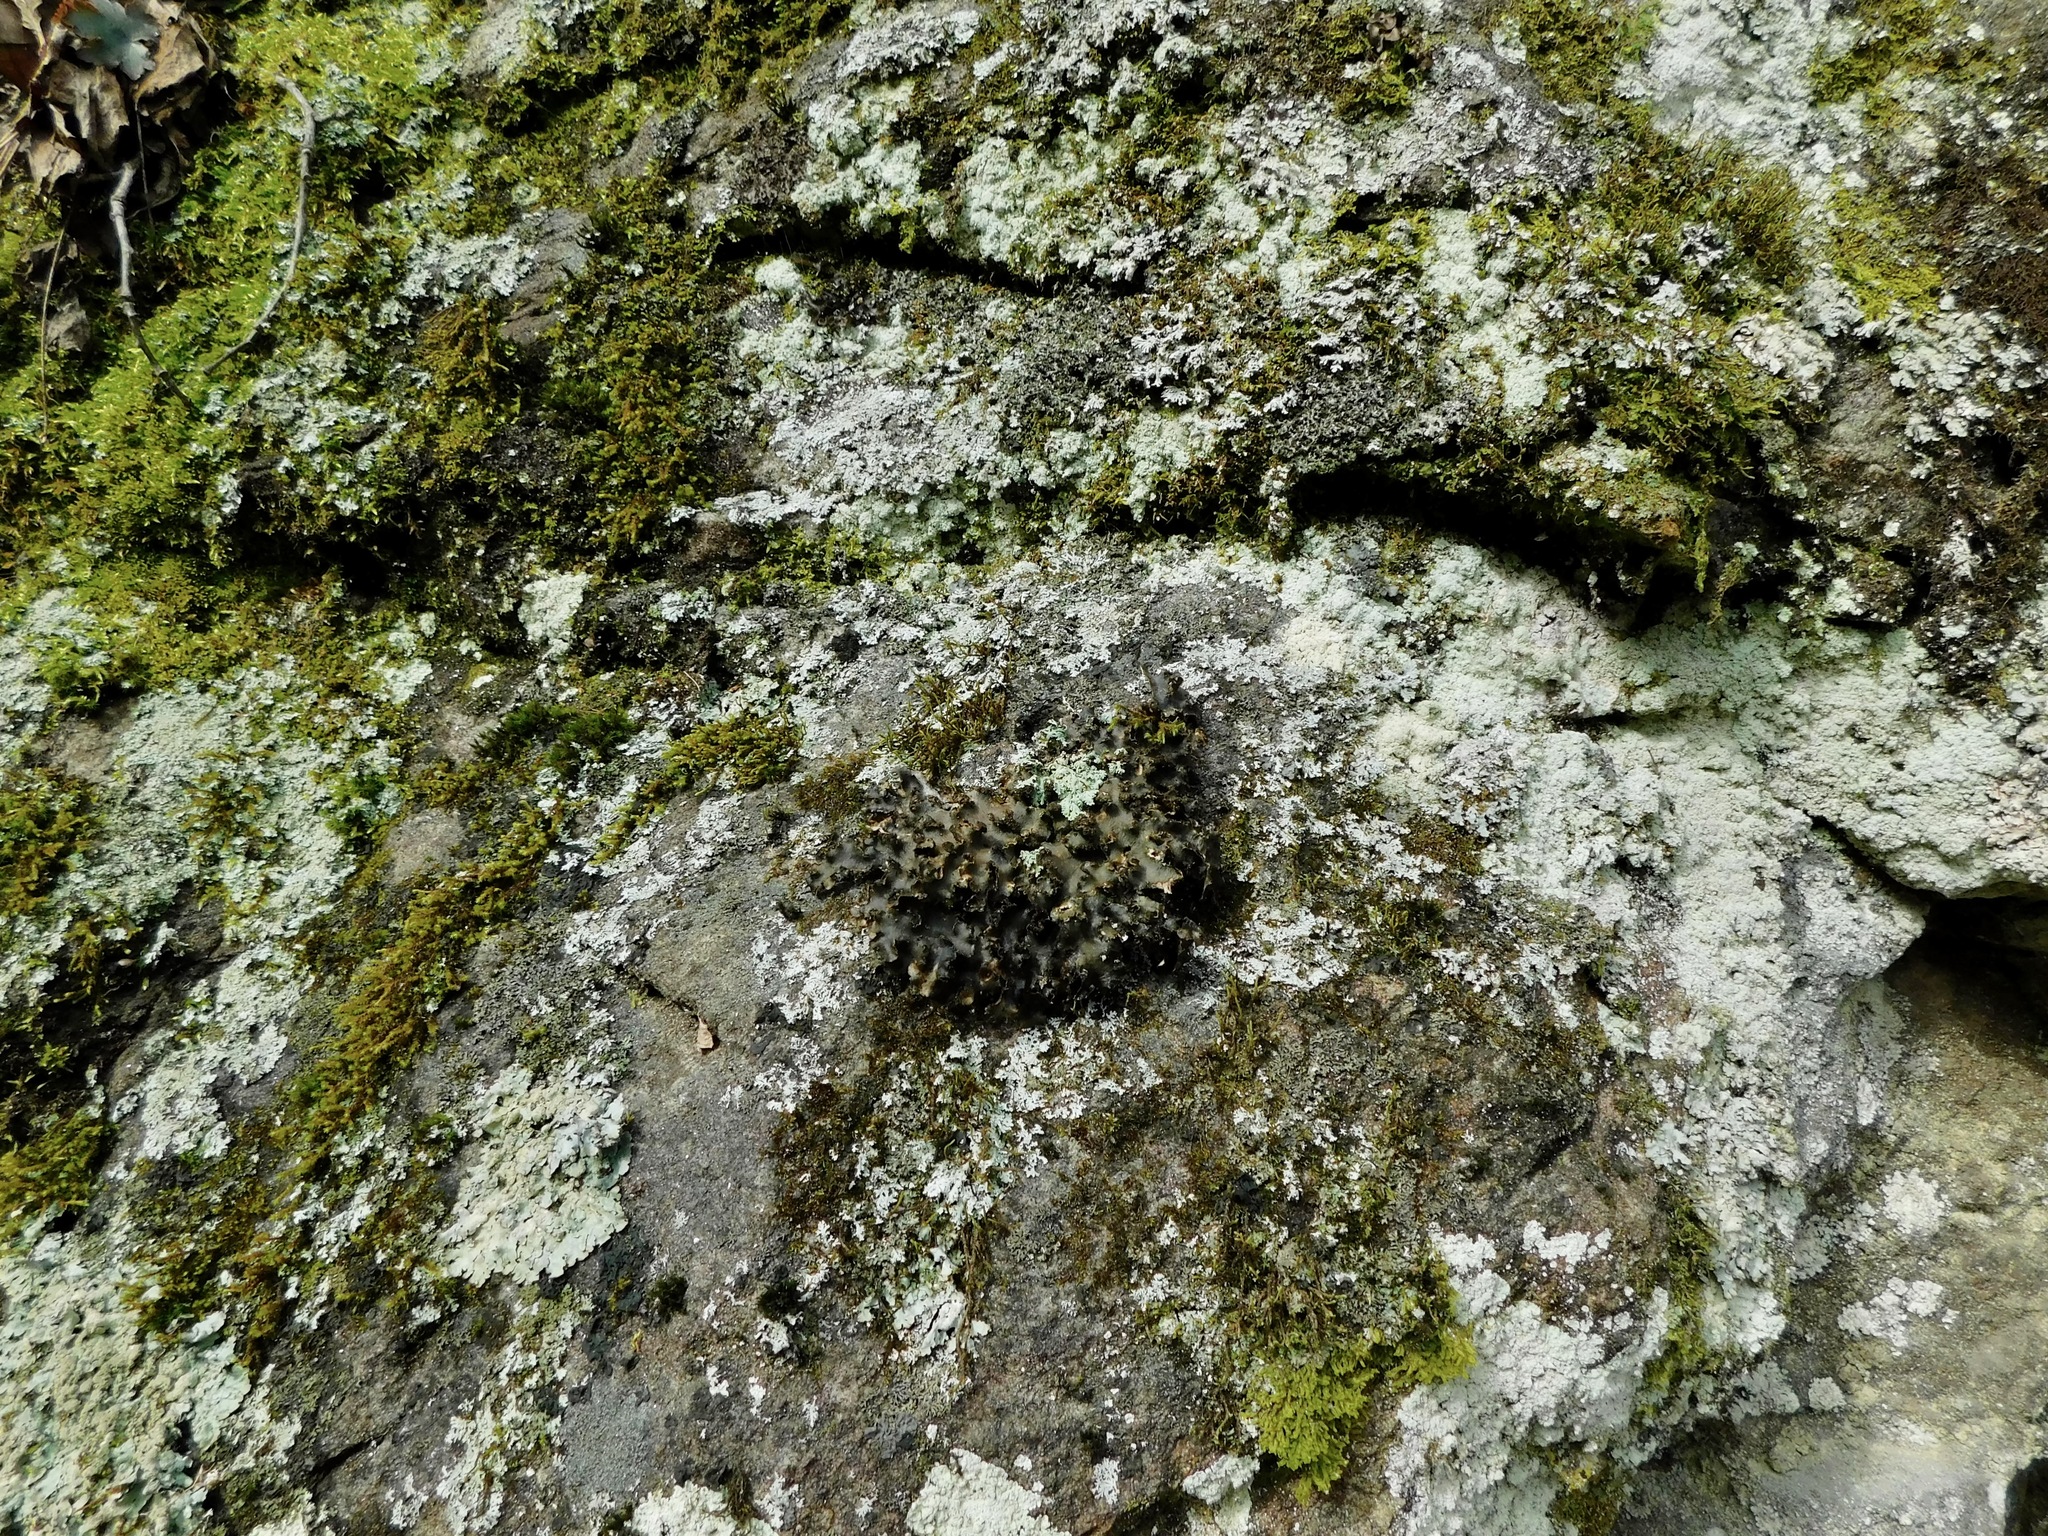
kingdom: Fungi
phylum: Ascomycota
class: Lecanoromycetes
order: Peltigerales
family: Lobariaceae
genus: Sticta
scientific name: Sticta beauvoisii
